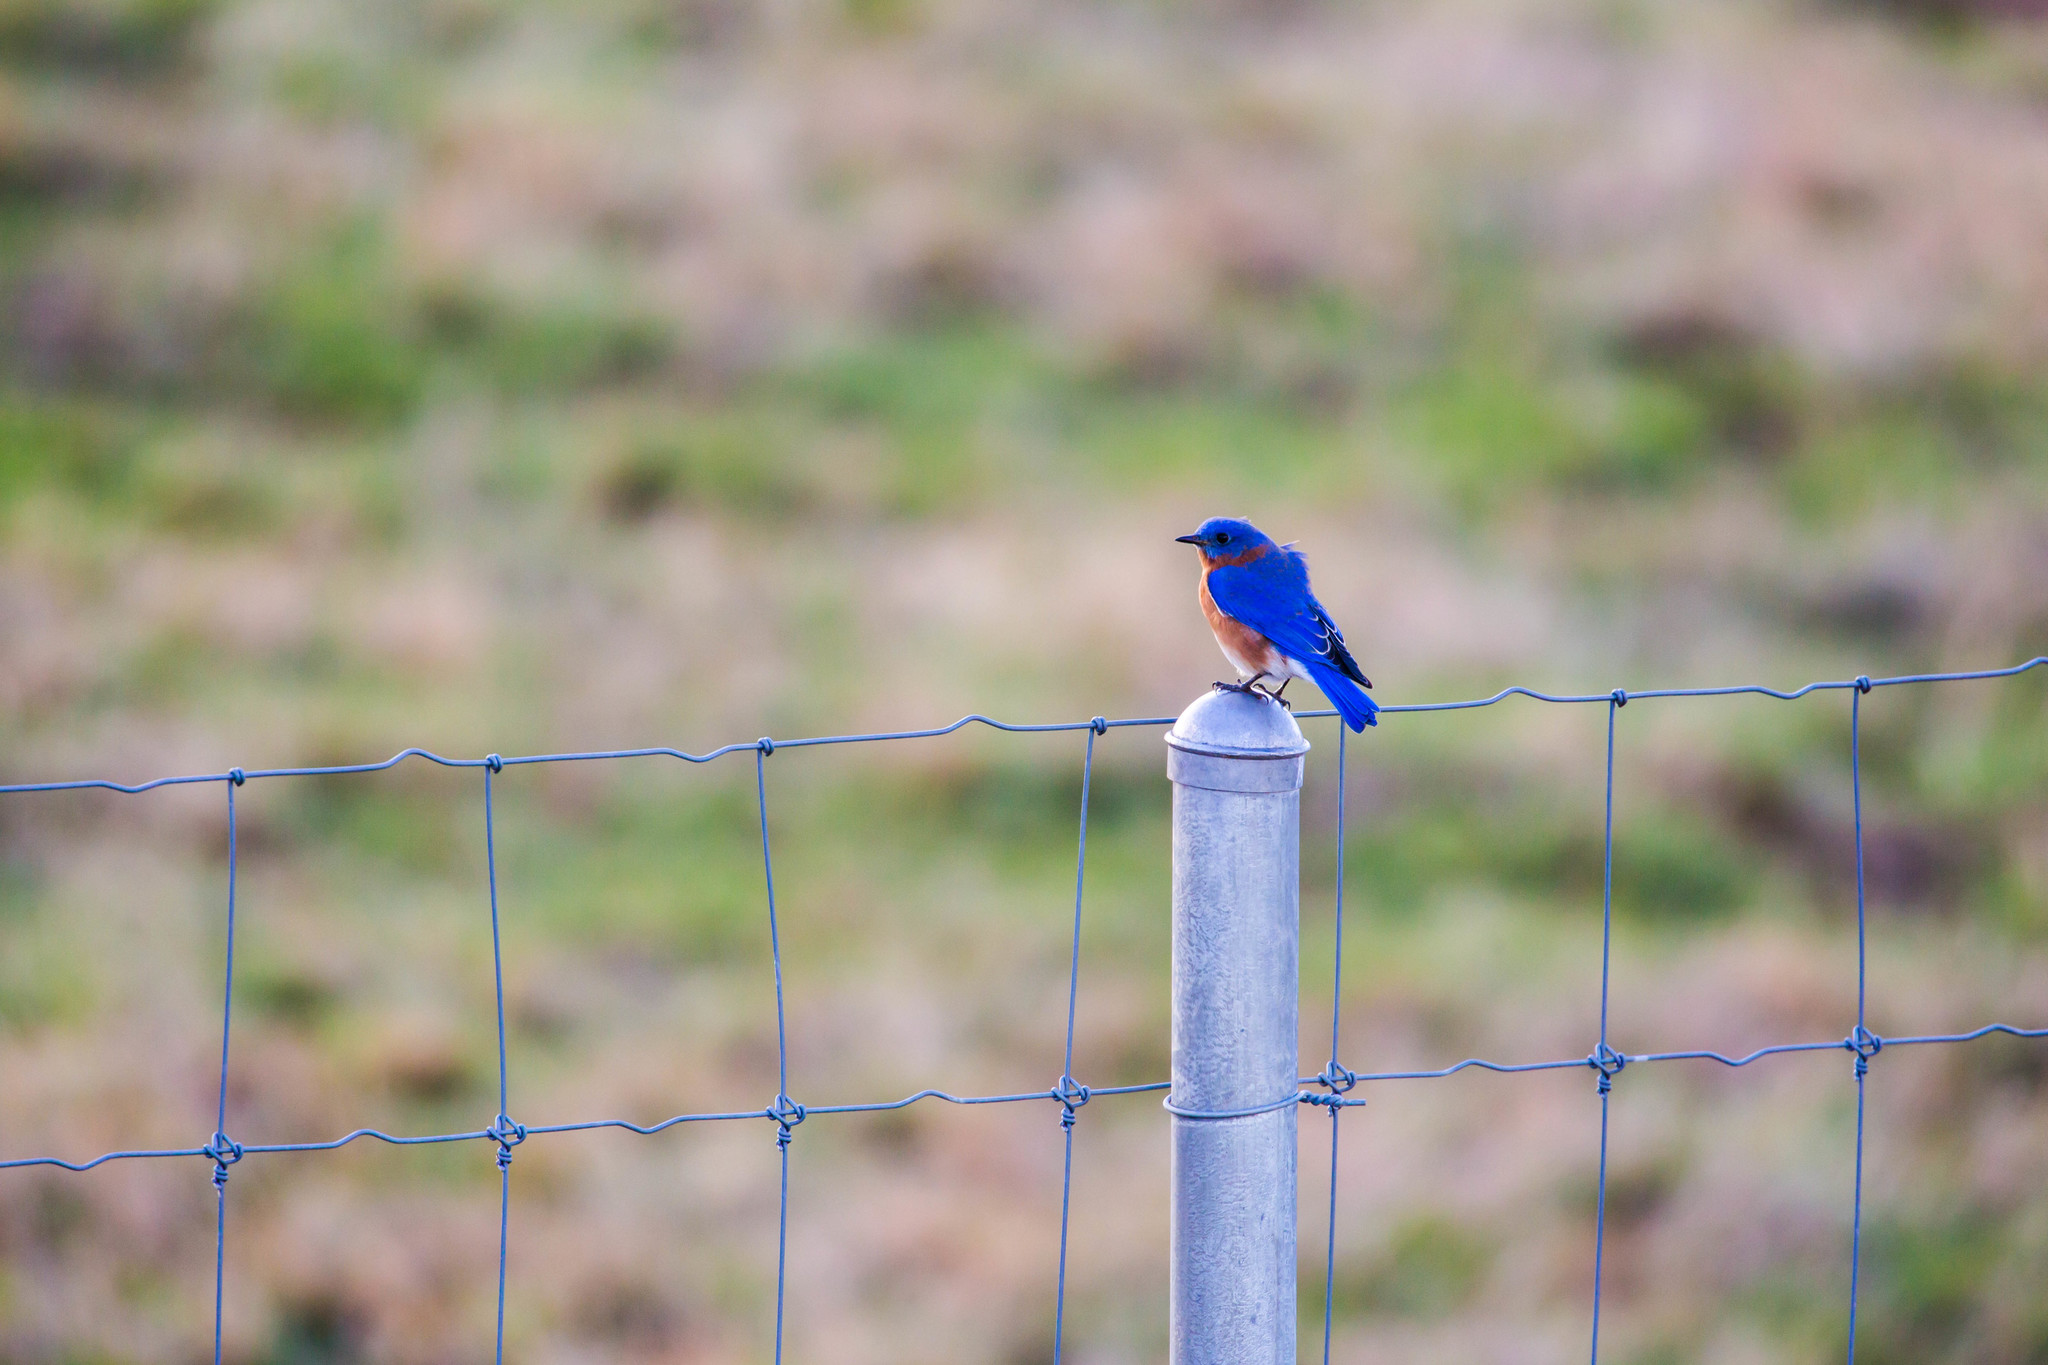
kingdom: Animalia
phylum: Chordata
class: Aves
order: Passeriformes
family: Turdidae
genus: Sialia
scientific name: Sialia sialis
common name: Eastern bluebird
